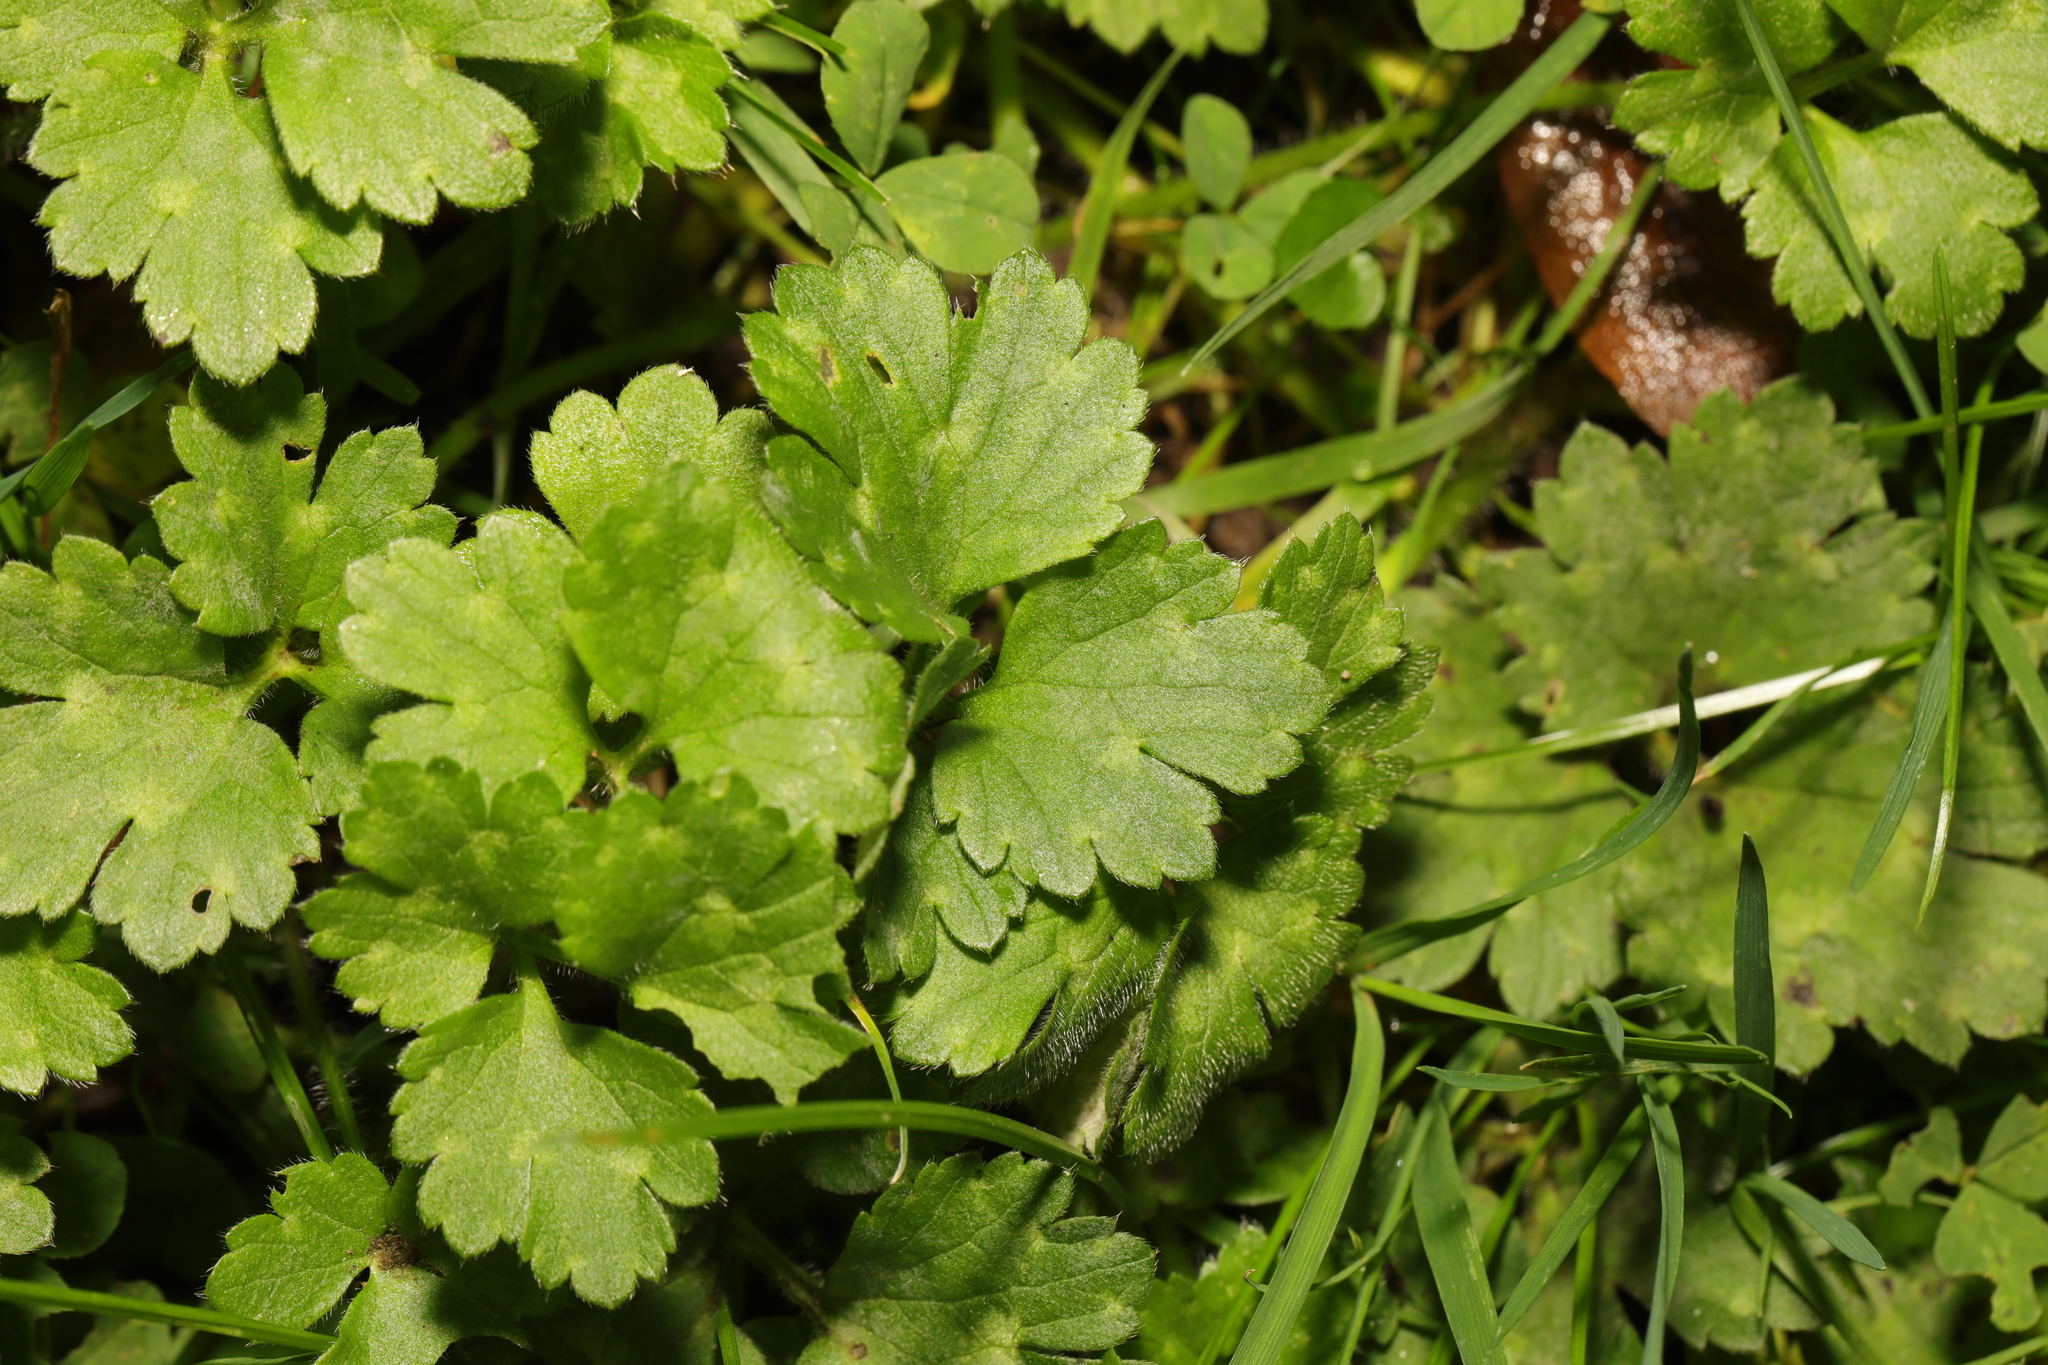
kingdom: Plantae
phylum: Tracheophyta
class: Magnoliopsida
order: Ranunculales
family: Ranunculaceae
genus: Ranunculus
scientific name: Ranunculus repens
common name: Creeping buttercup
